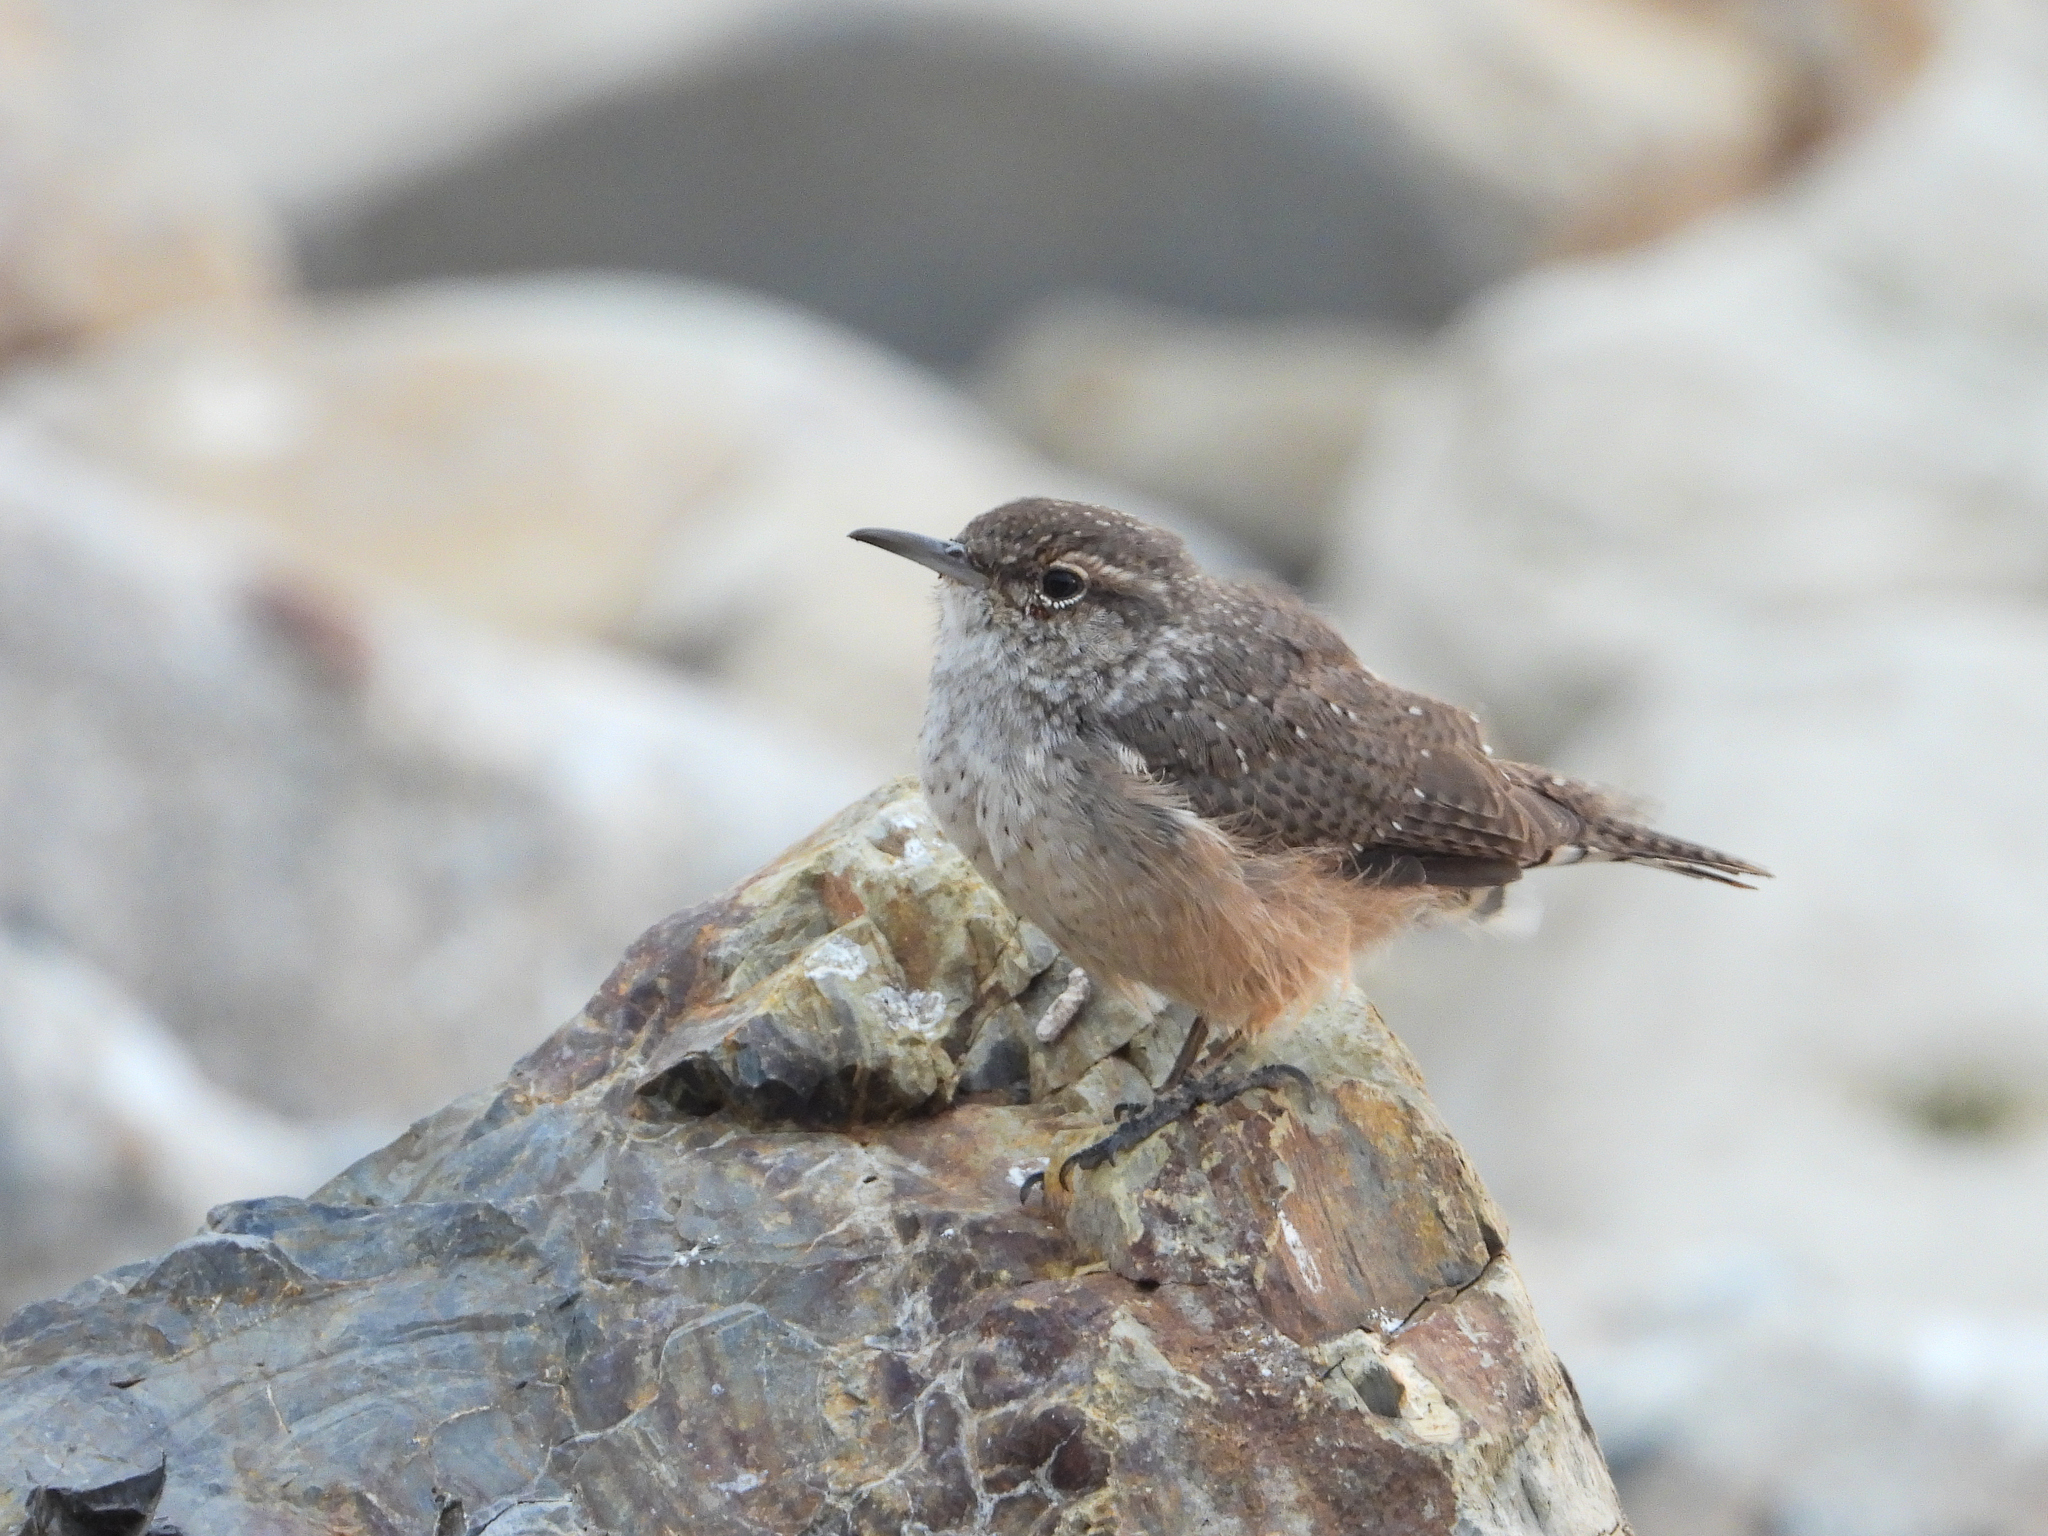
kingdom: Animalia
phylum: Chordata
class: Aves
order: Passeriformes
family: Troglodytidae
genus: Salpinctes
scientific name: Salpinctes obsoletus
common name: Rock wren
